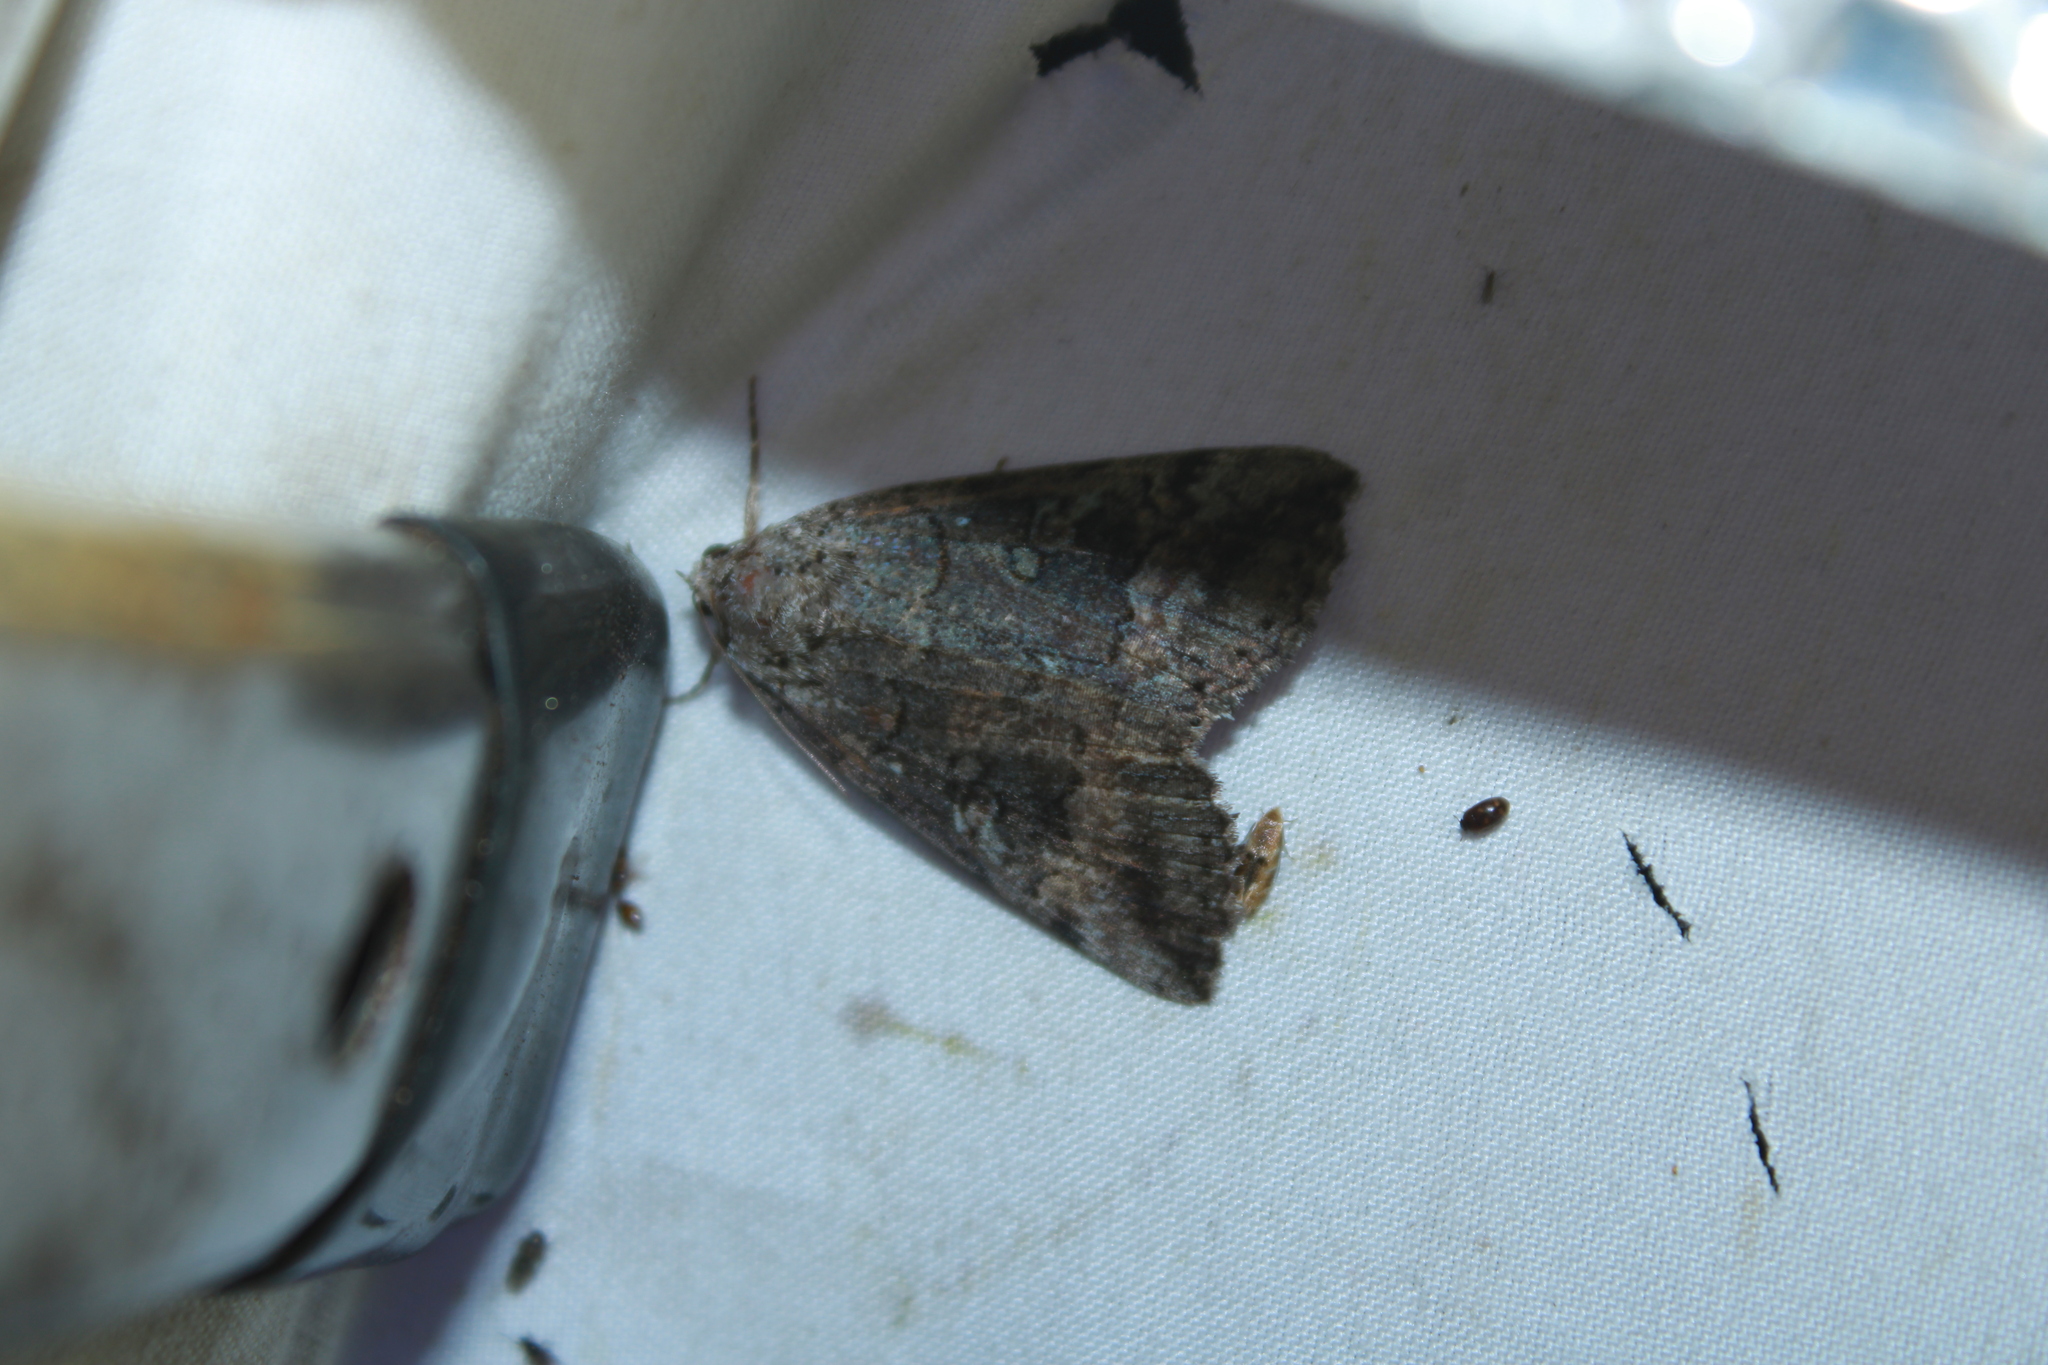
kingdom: Animalia
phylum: Arthropoda
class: Insecta
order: Lepidoptera
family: Erebidae
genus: Catocala
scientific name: Catocala similis
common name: Similar underwing
